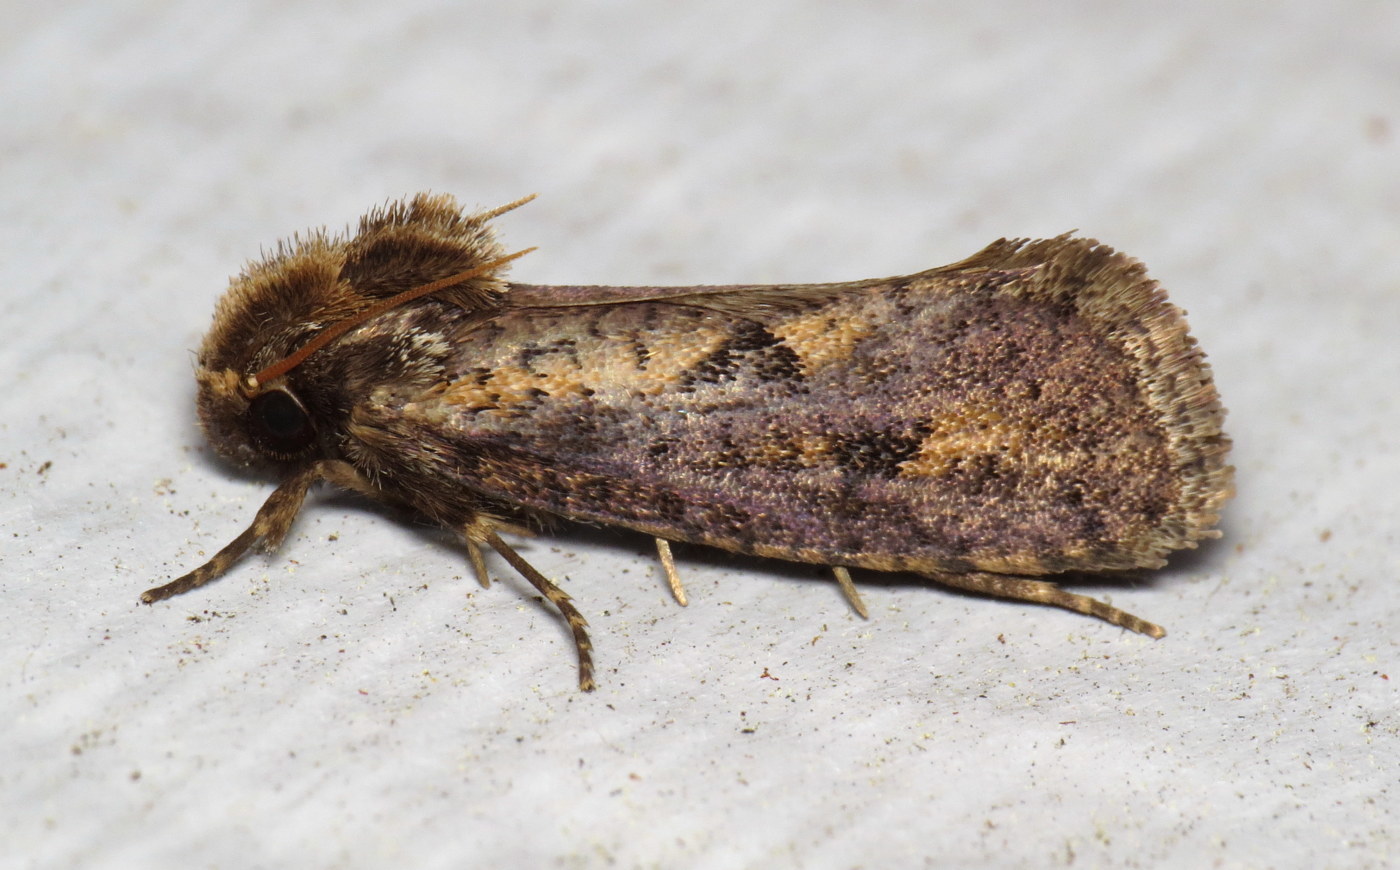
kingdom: Animalia
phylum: Arthropoda
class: Insecta
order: Lepidoptera
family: Tineidae
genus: Acrolophus
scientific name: Acrolophus popeanella
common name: Clemens' grass tubeworm moth
